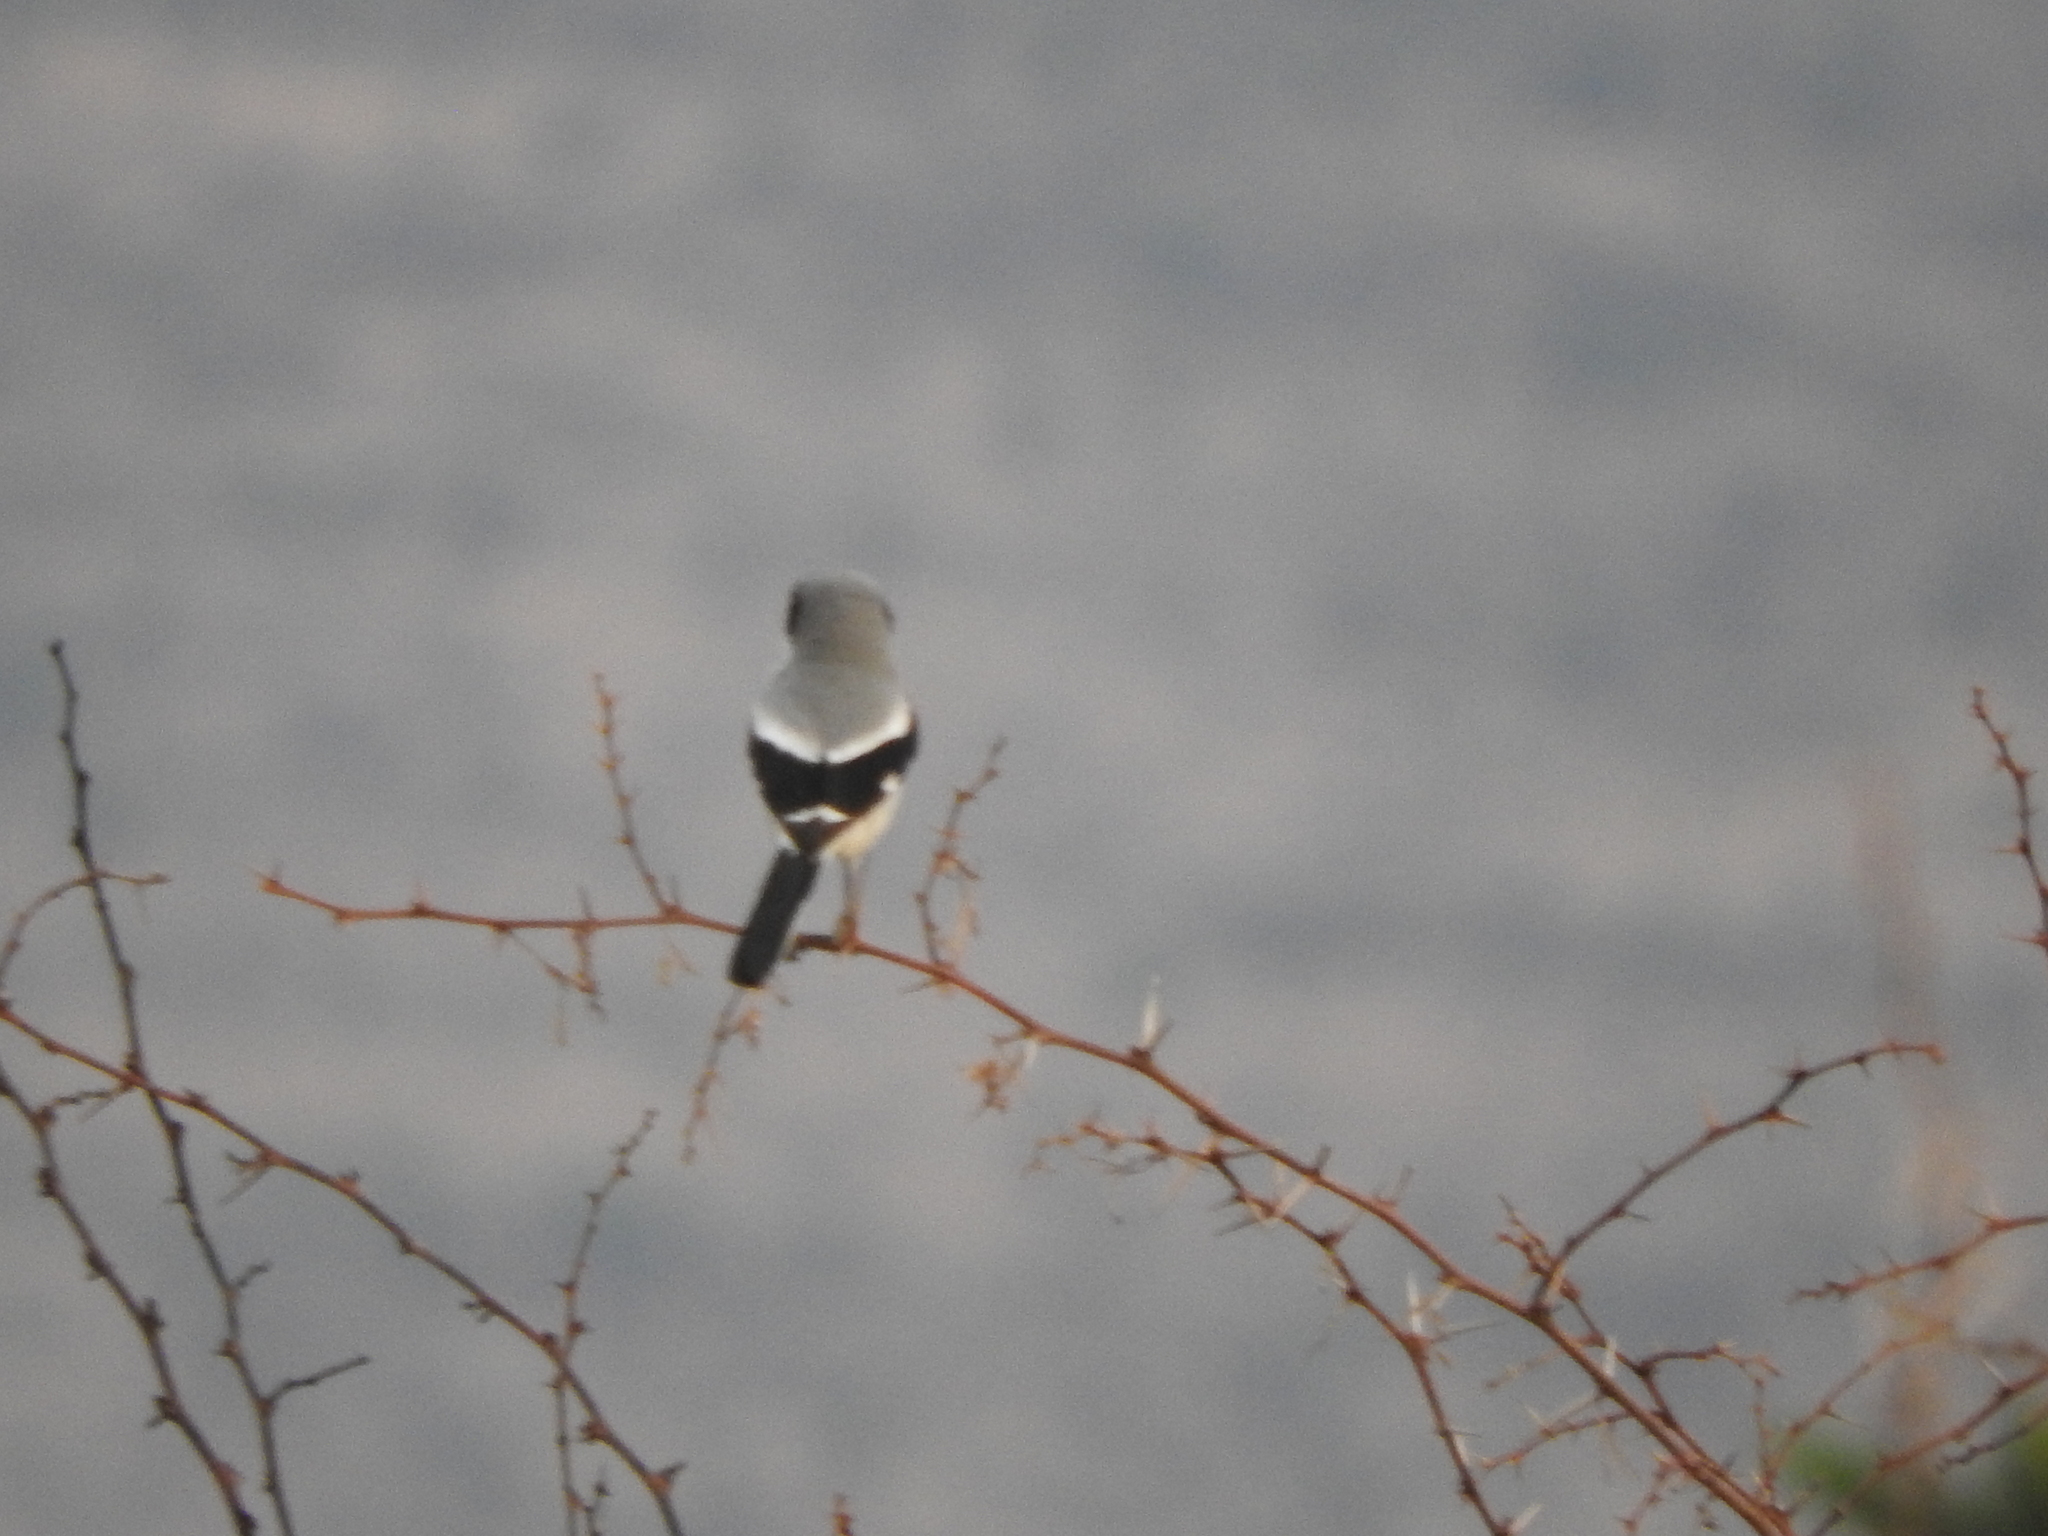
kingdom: Animalia
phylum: Chordata
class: Aves
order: Passeriformes
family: Laniidae
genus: Lanius
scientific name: Lanius ludovicianus
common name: Loggerhead shrike
